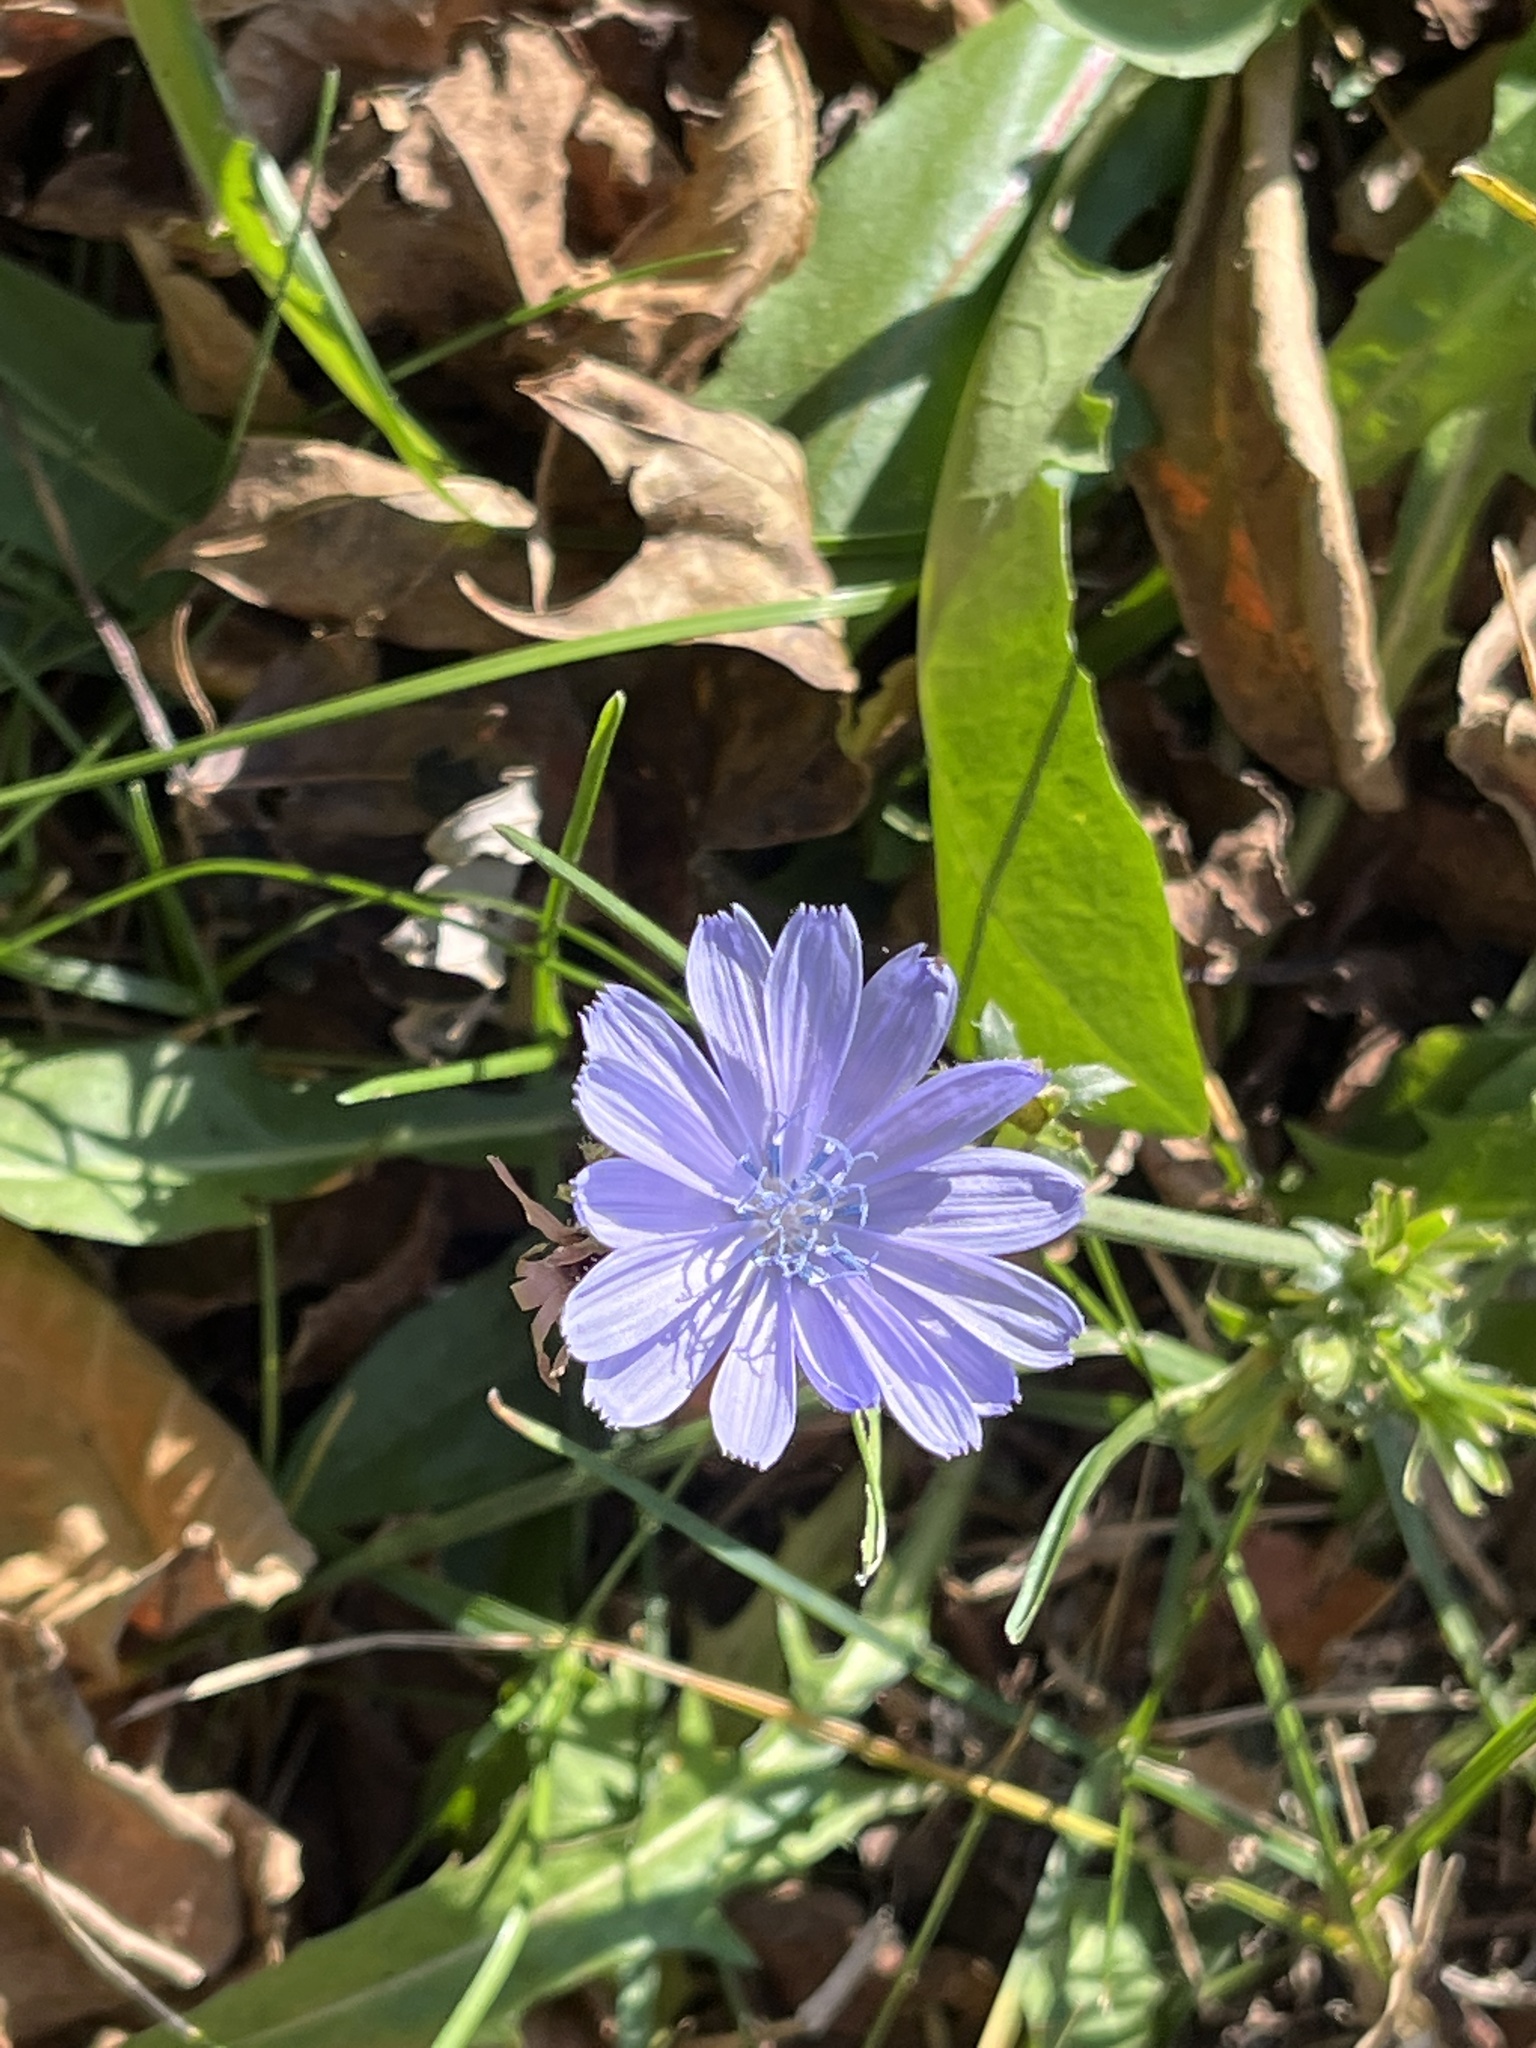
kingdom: Plantae
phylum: Tracheophyta
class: Magnoliopsida
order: Asterales
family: Asteraceae
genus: Cichorium
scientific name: Cichorium intybus
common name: Chicory
